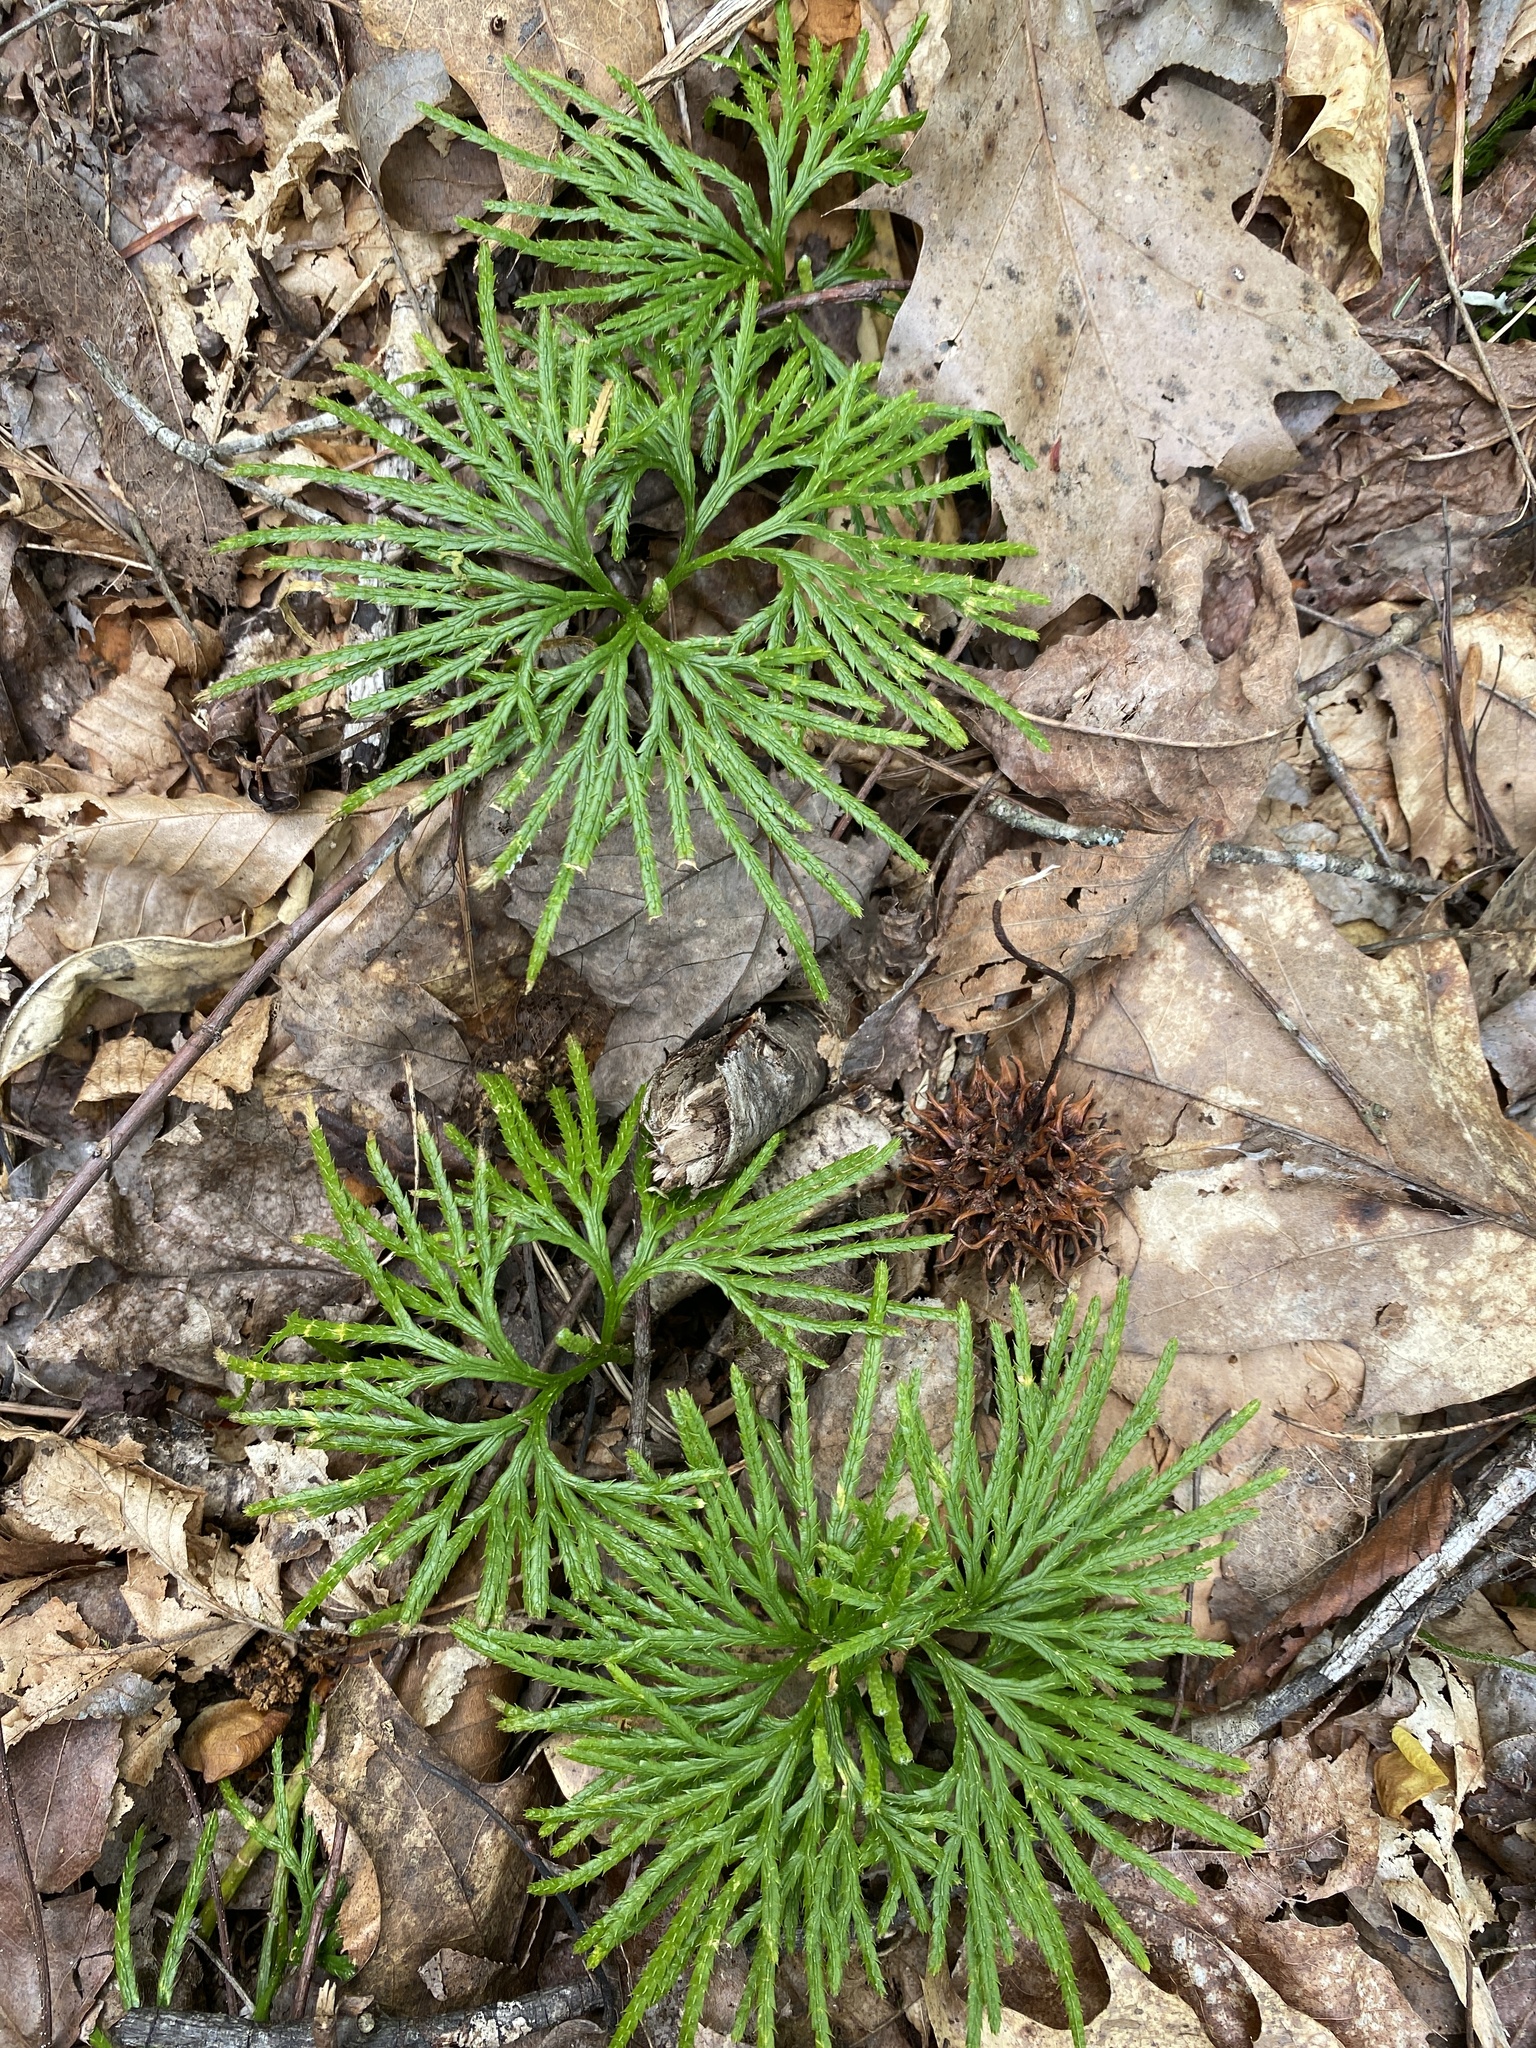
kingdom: Plantae
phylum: Tracheophyta
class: Lycopodiopsida
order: Lycopodiales
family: Lycopodiaceae
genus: Diphasiastrum
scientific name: Diphasiastrum digitatum
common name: Southern running-pine
